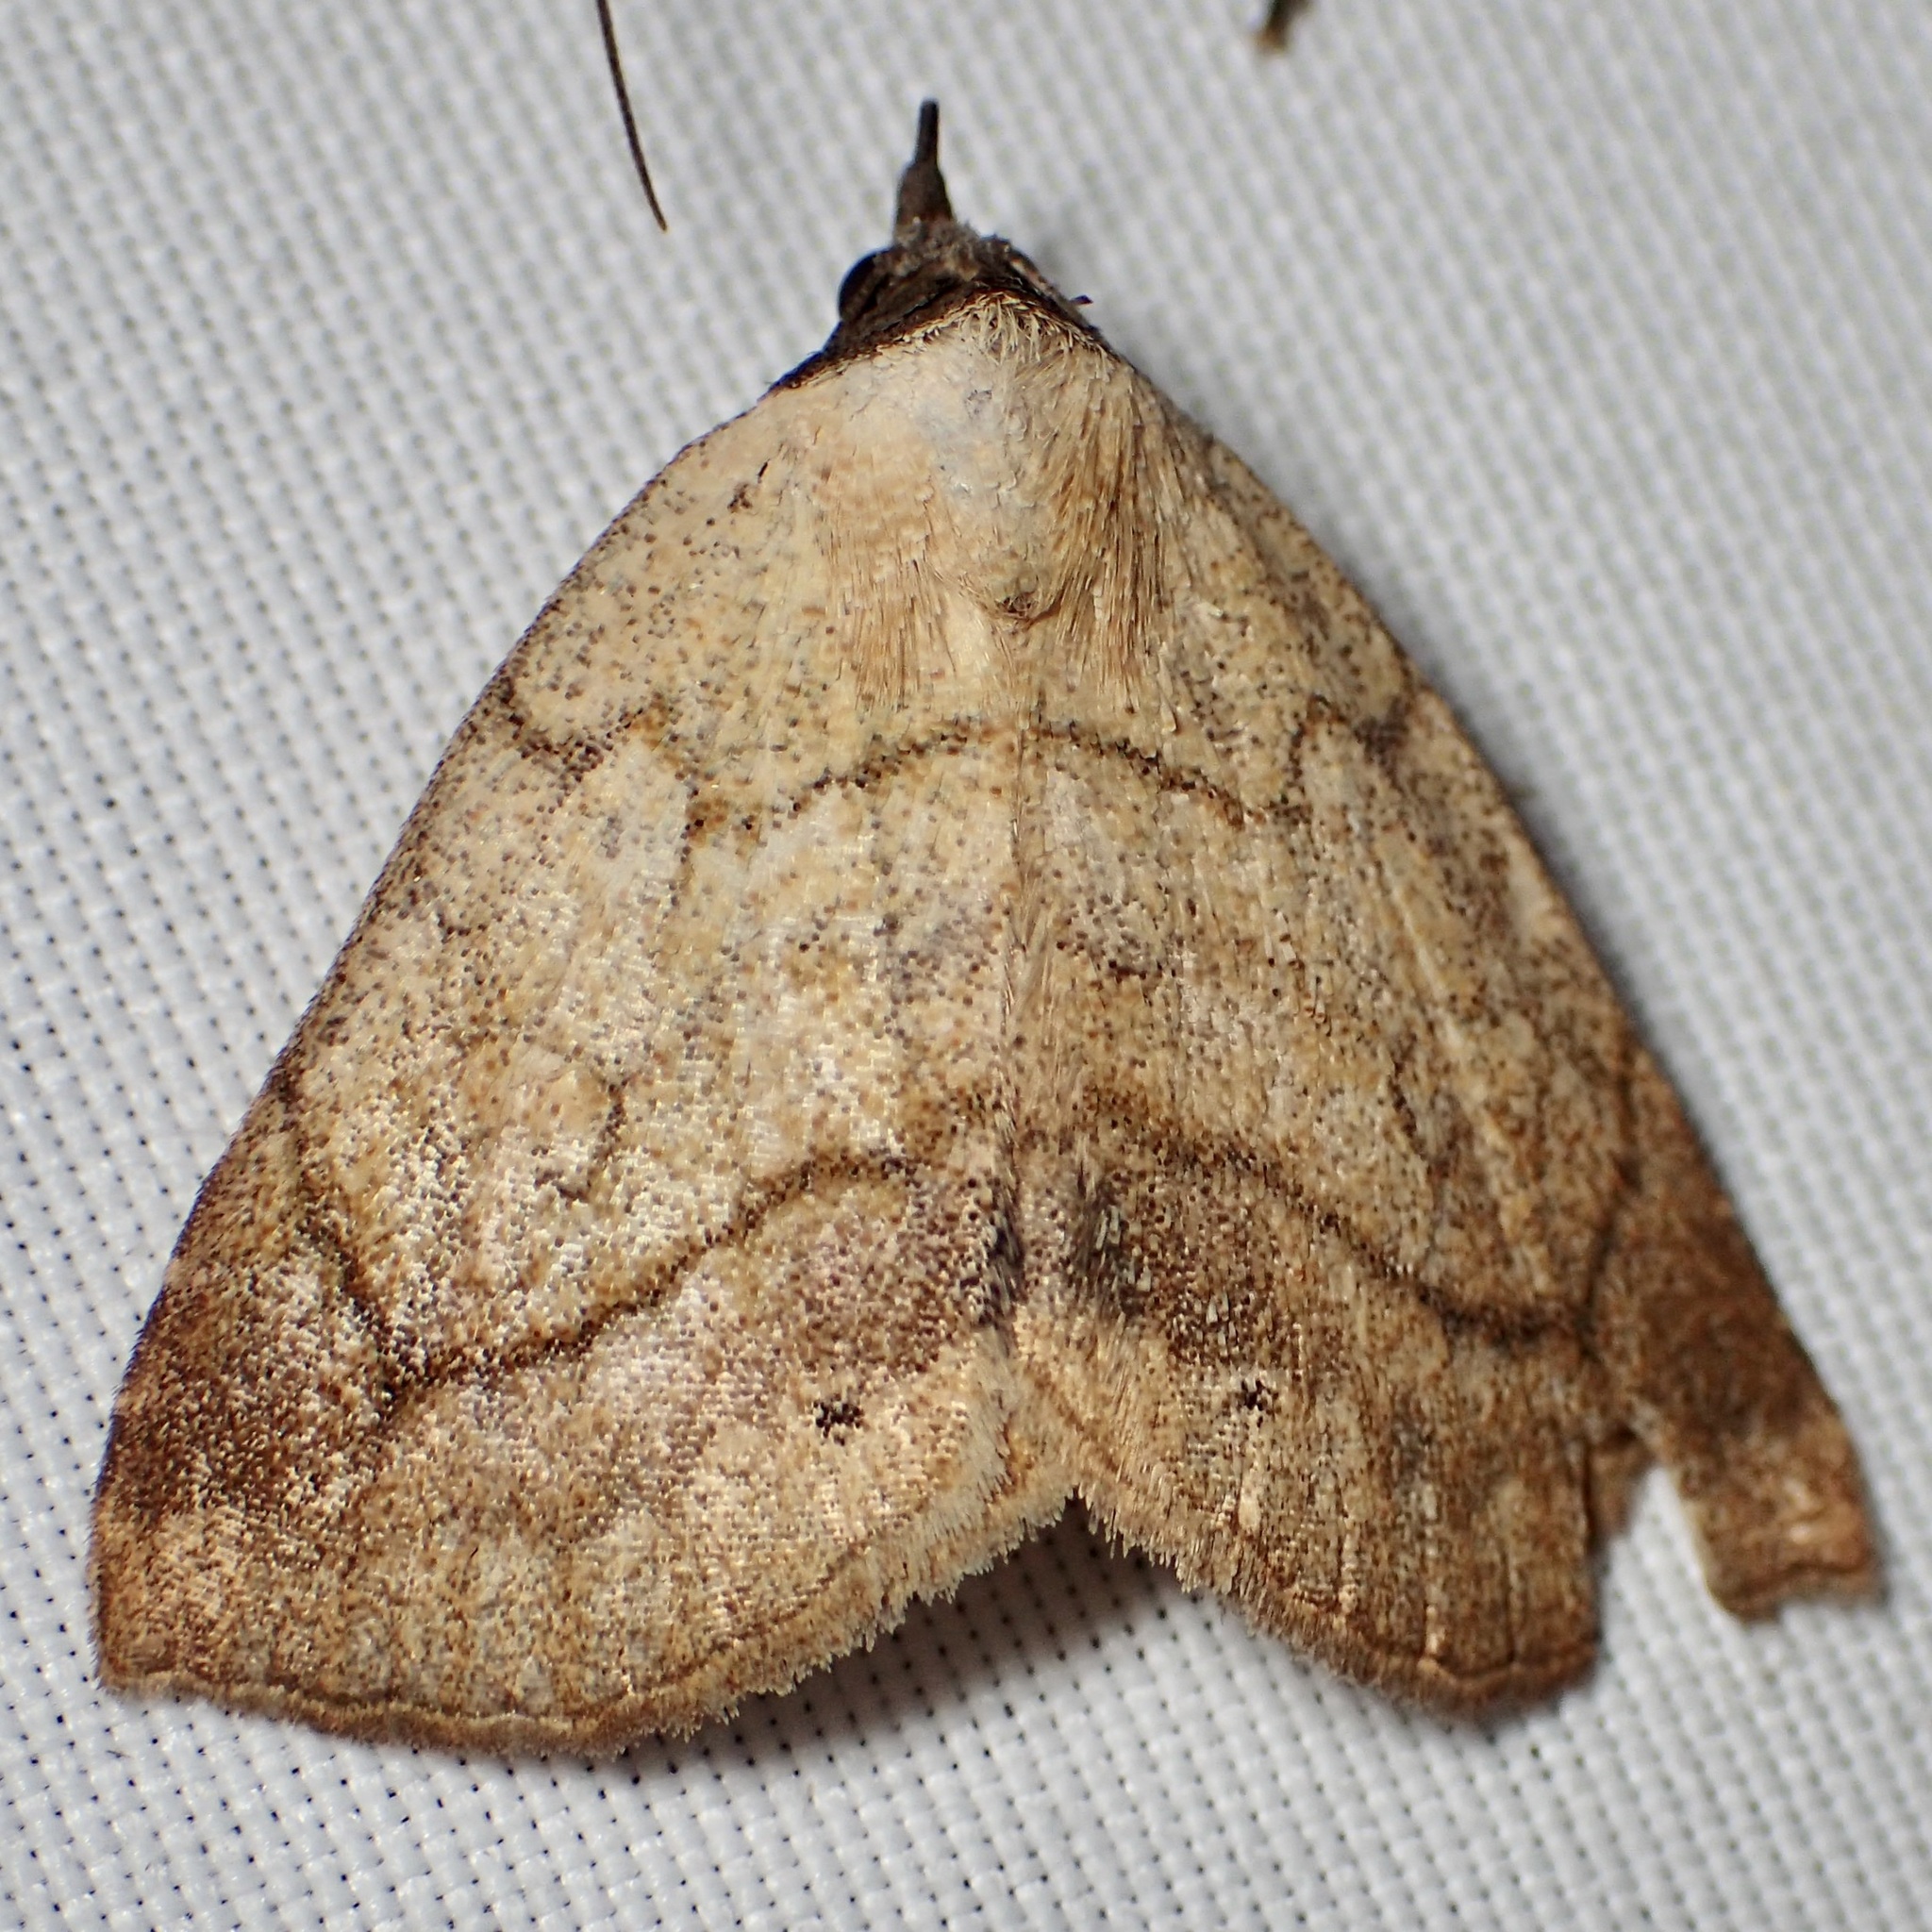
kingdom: Animalia
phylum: Arthropoda
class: Insecta
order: Lepidoptera
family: Erebidae
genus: Isogona
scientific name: Isogona punctipennis
